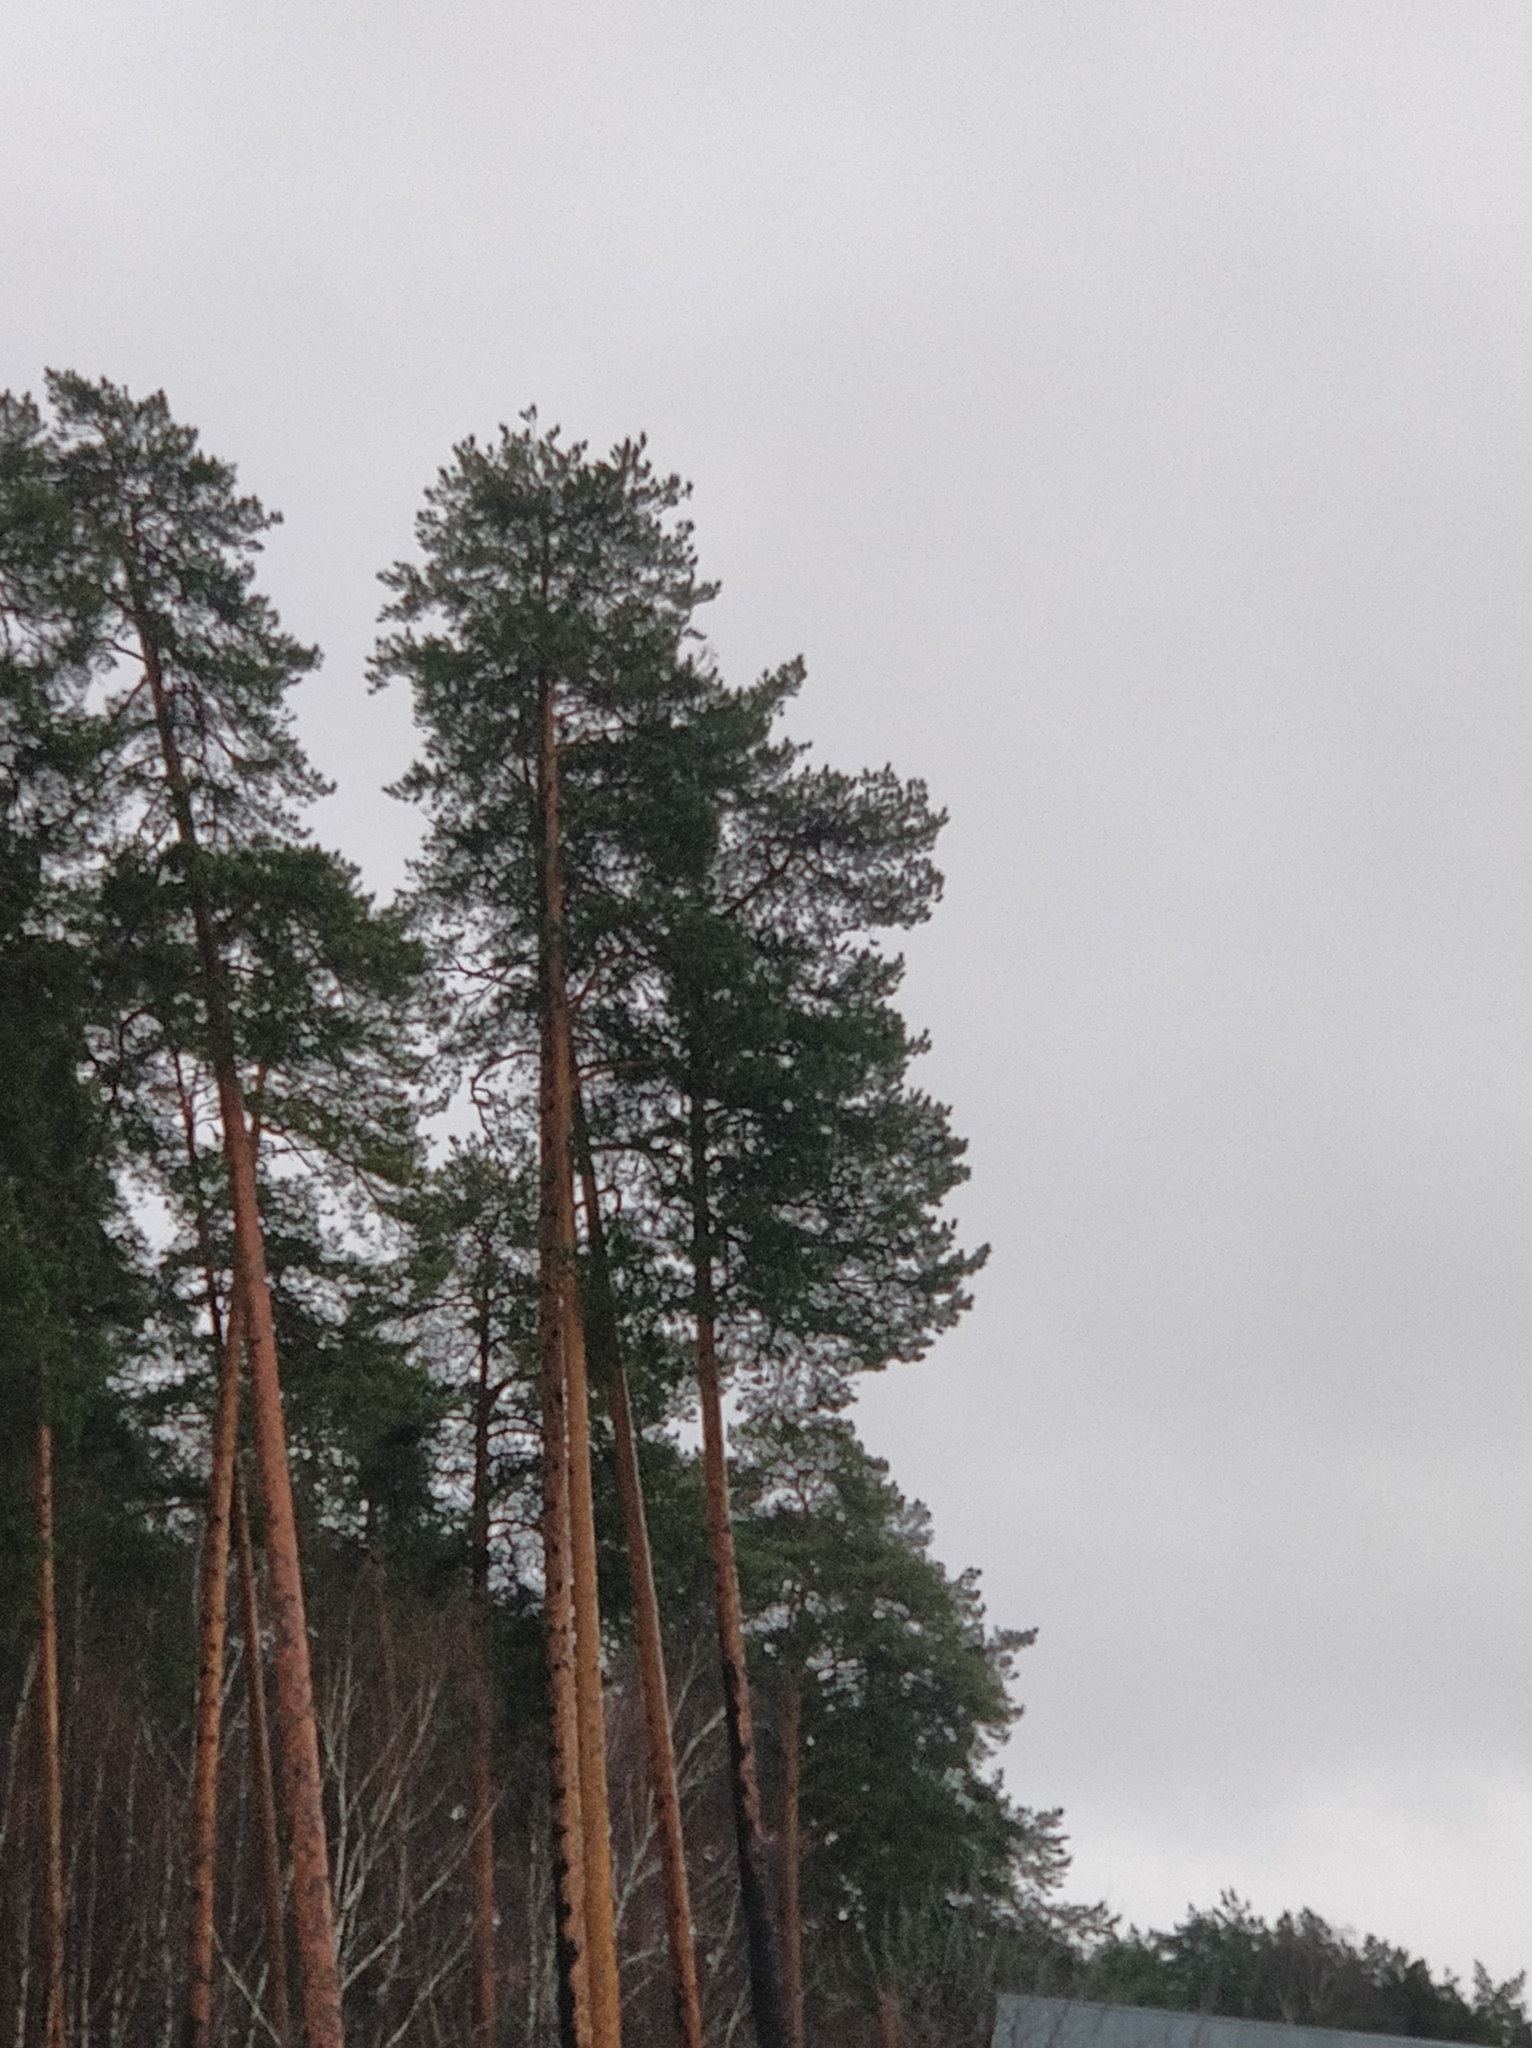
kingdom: Plantae
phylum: Tracheophyta
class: Pinopsida
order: Pinales
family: Pinaceae
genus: Pinus
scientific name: Pinus sylvestris
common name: Scots pine
